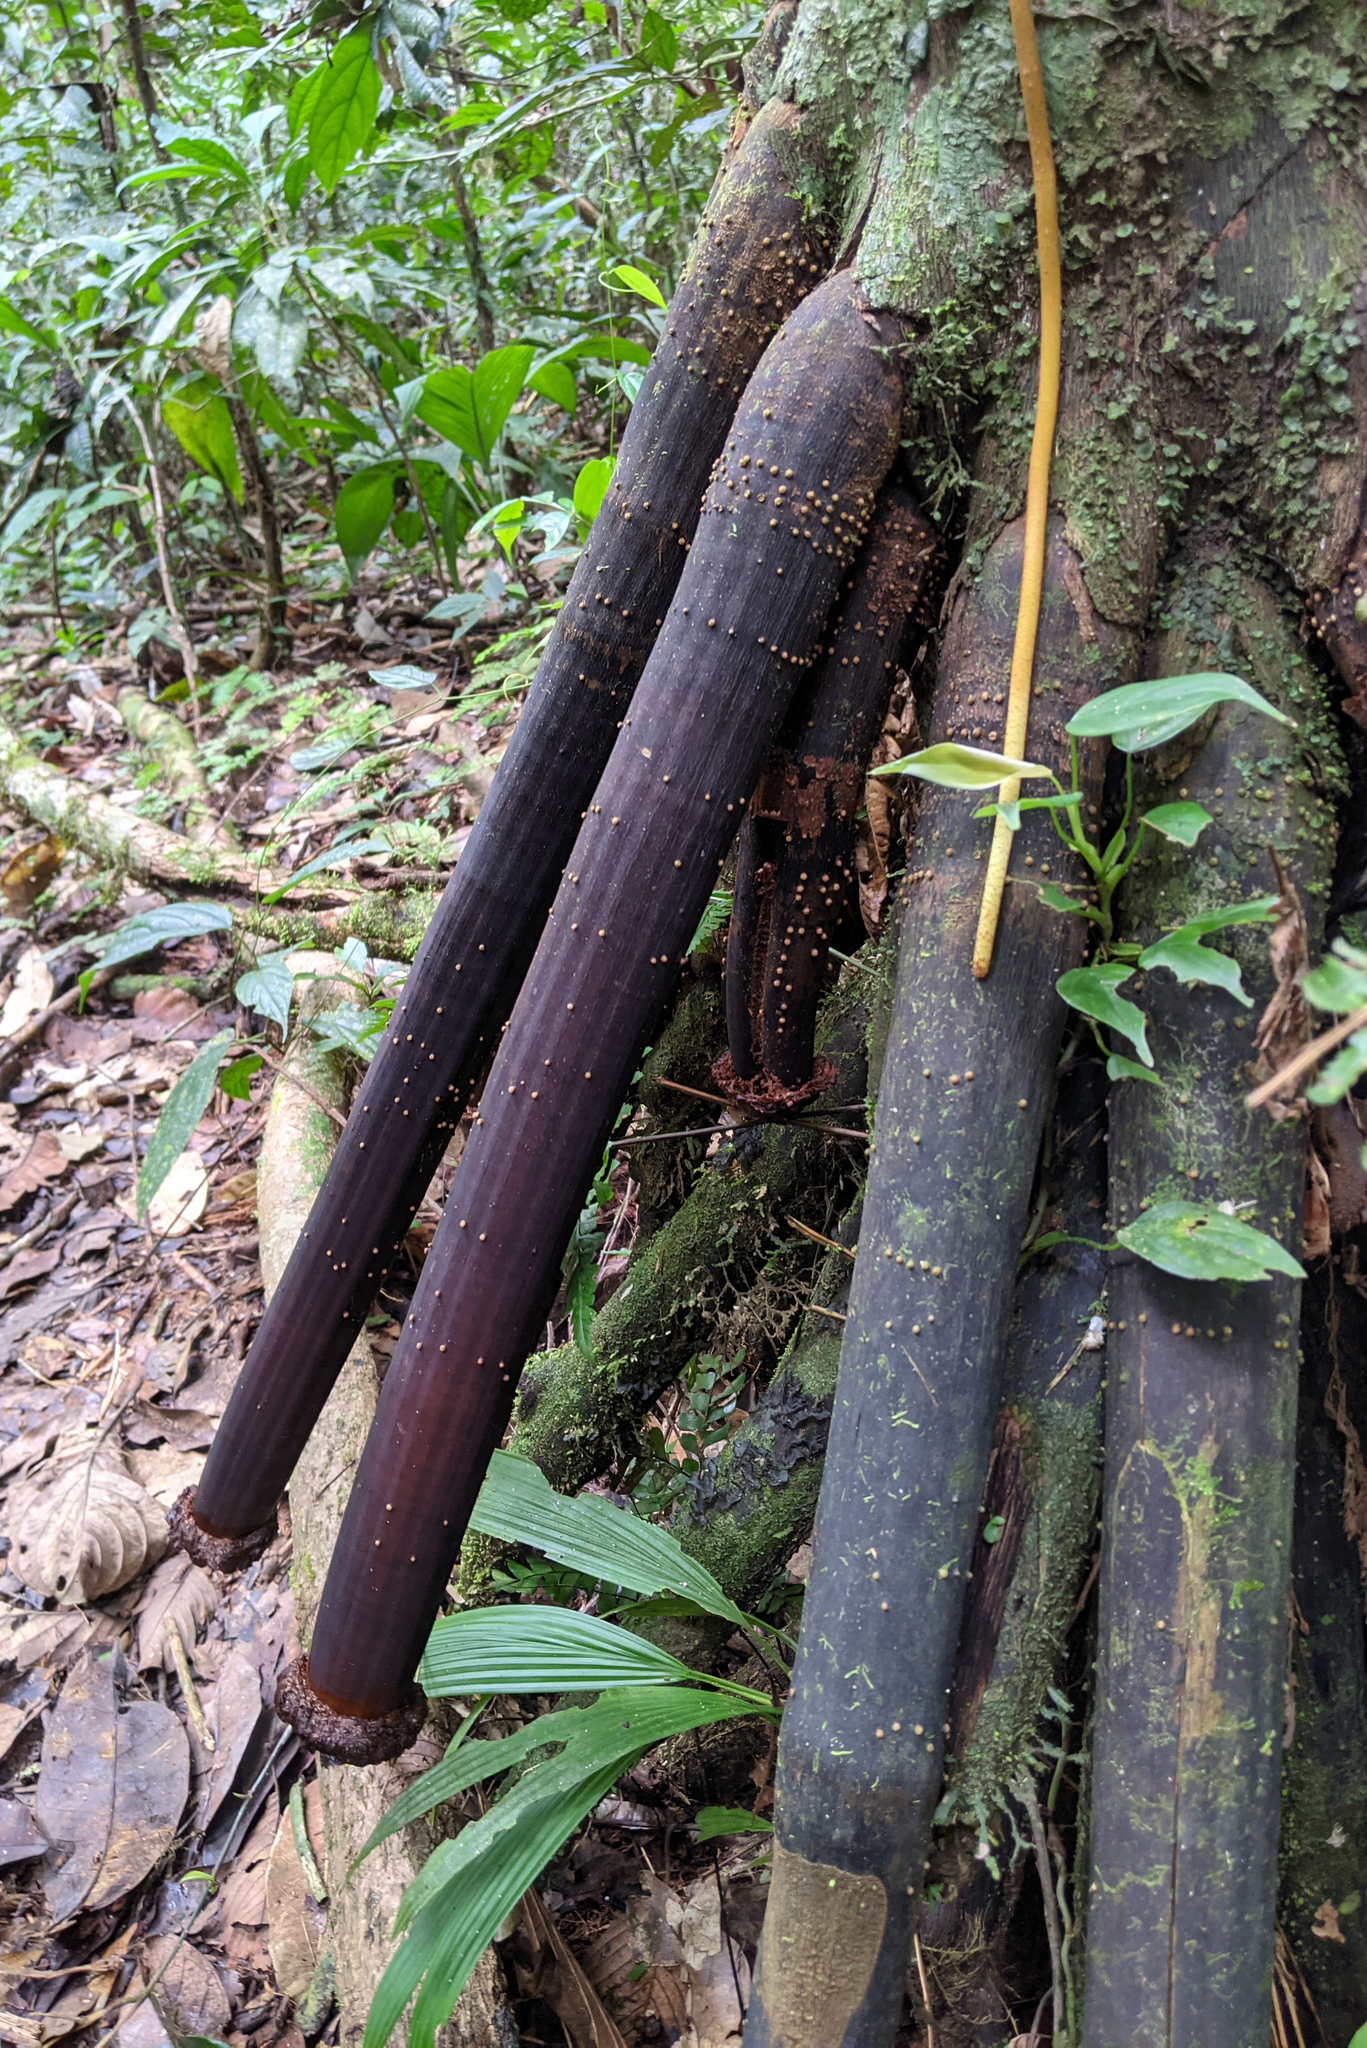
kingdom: Plantae
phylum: Tracheophyta
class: Liliopsida
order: Arecales
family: Arecaceae
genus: Iriartea
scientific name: Iriartea deltoidea
